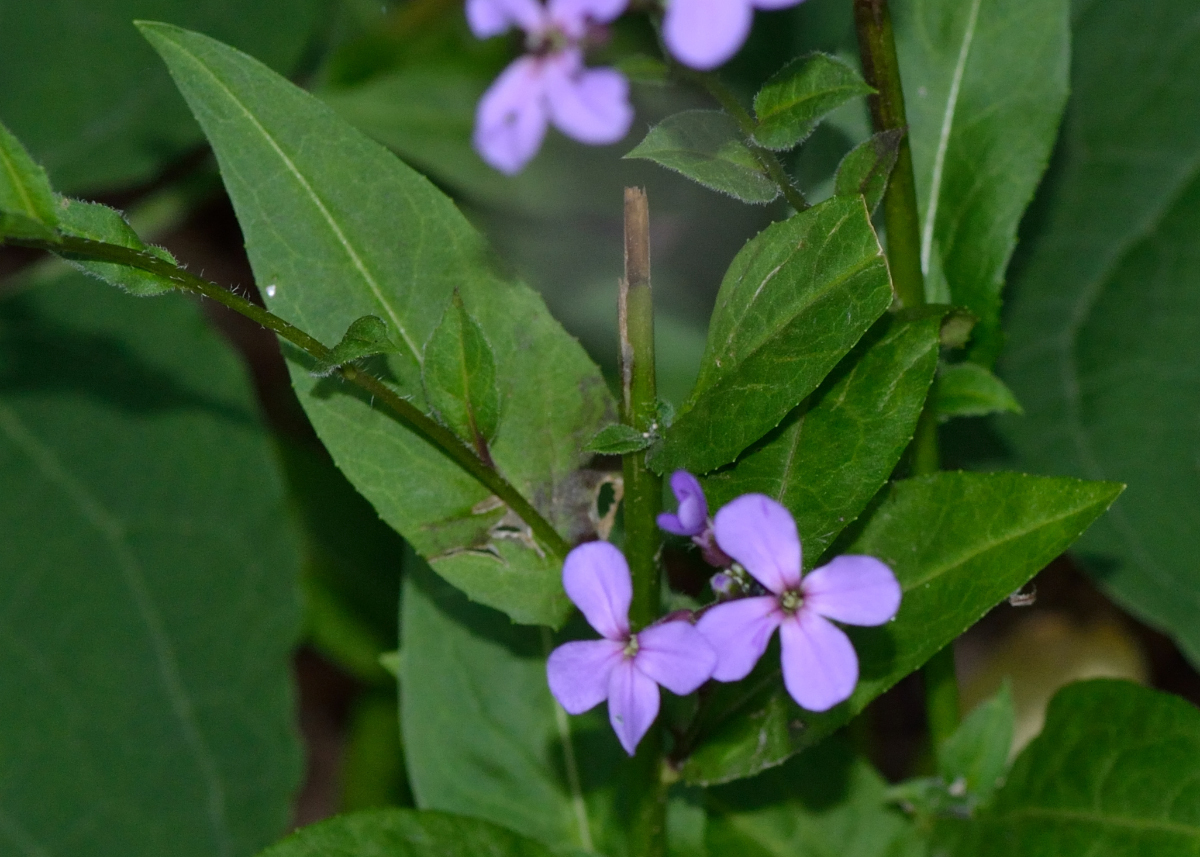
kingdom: Plantae
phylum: Tracheophyta
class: Magnoliopsida
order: Brassicales
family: Brassicaceae
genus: Hesperis
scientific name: Hesperis matronalis
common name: Dame's-violet
